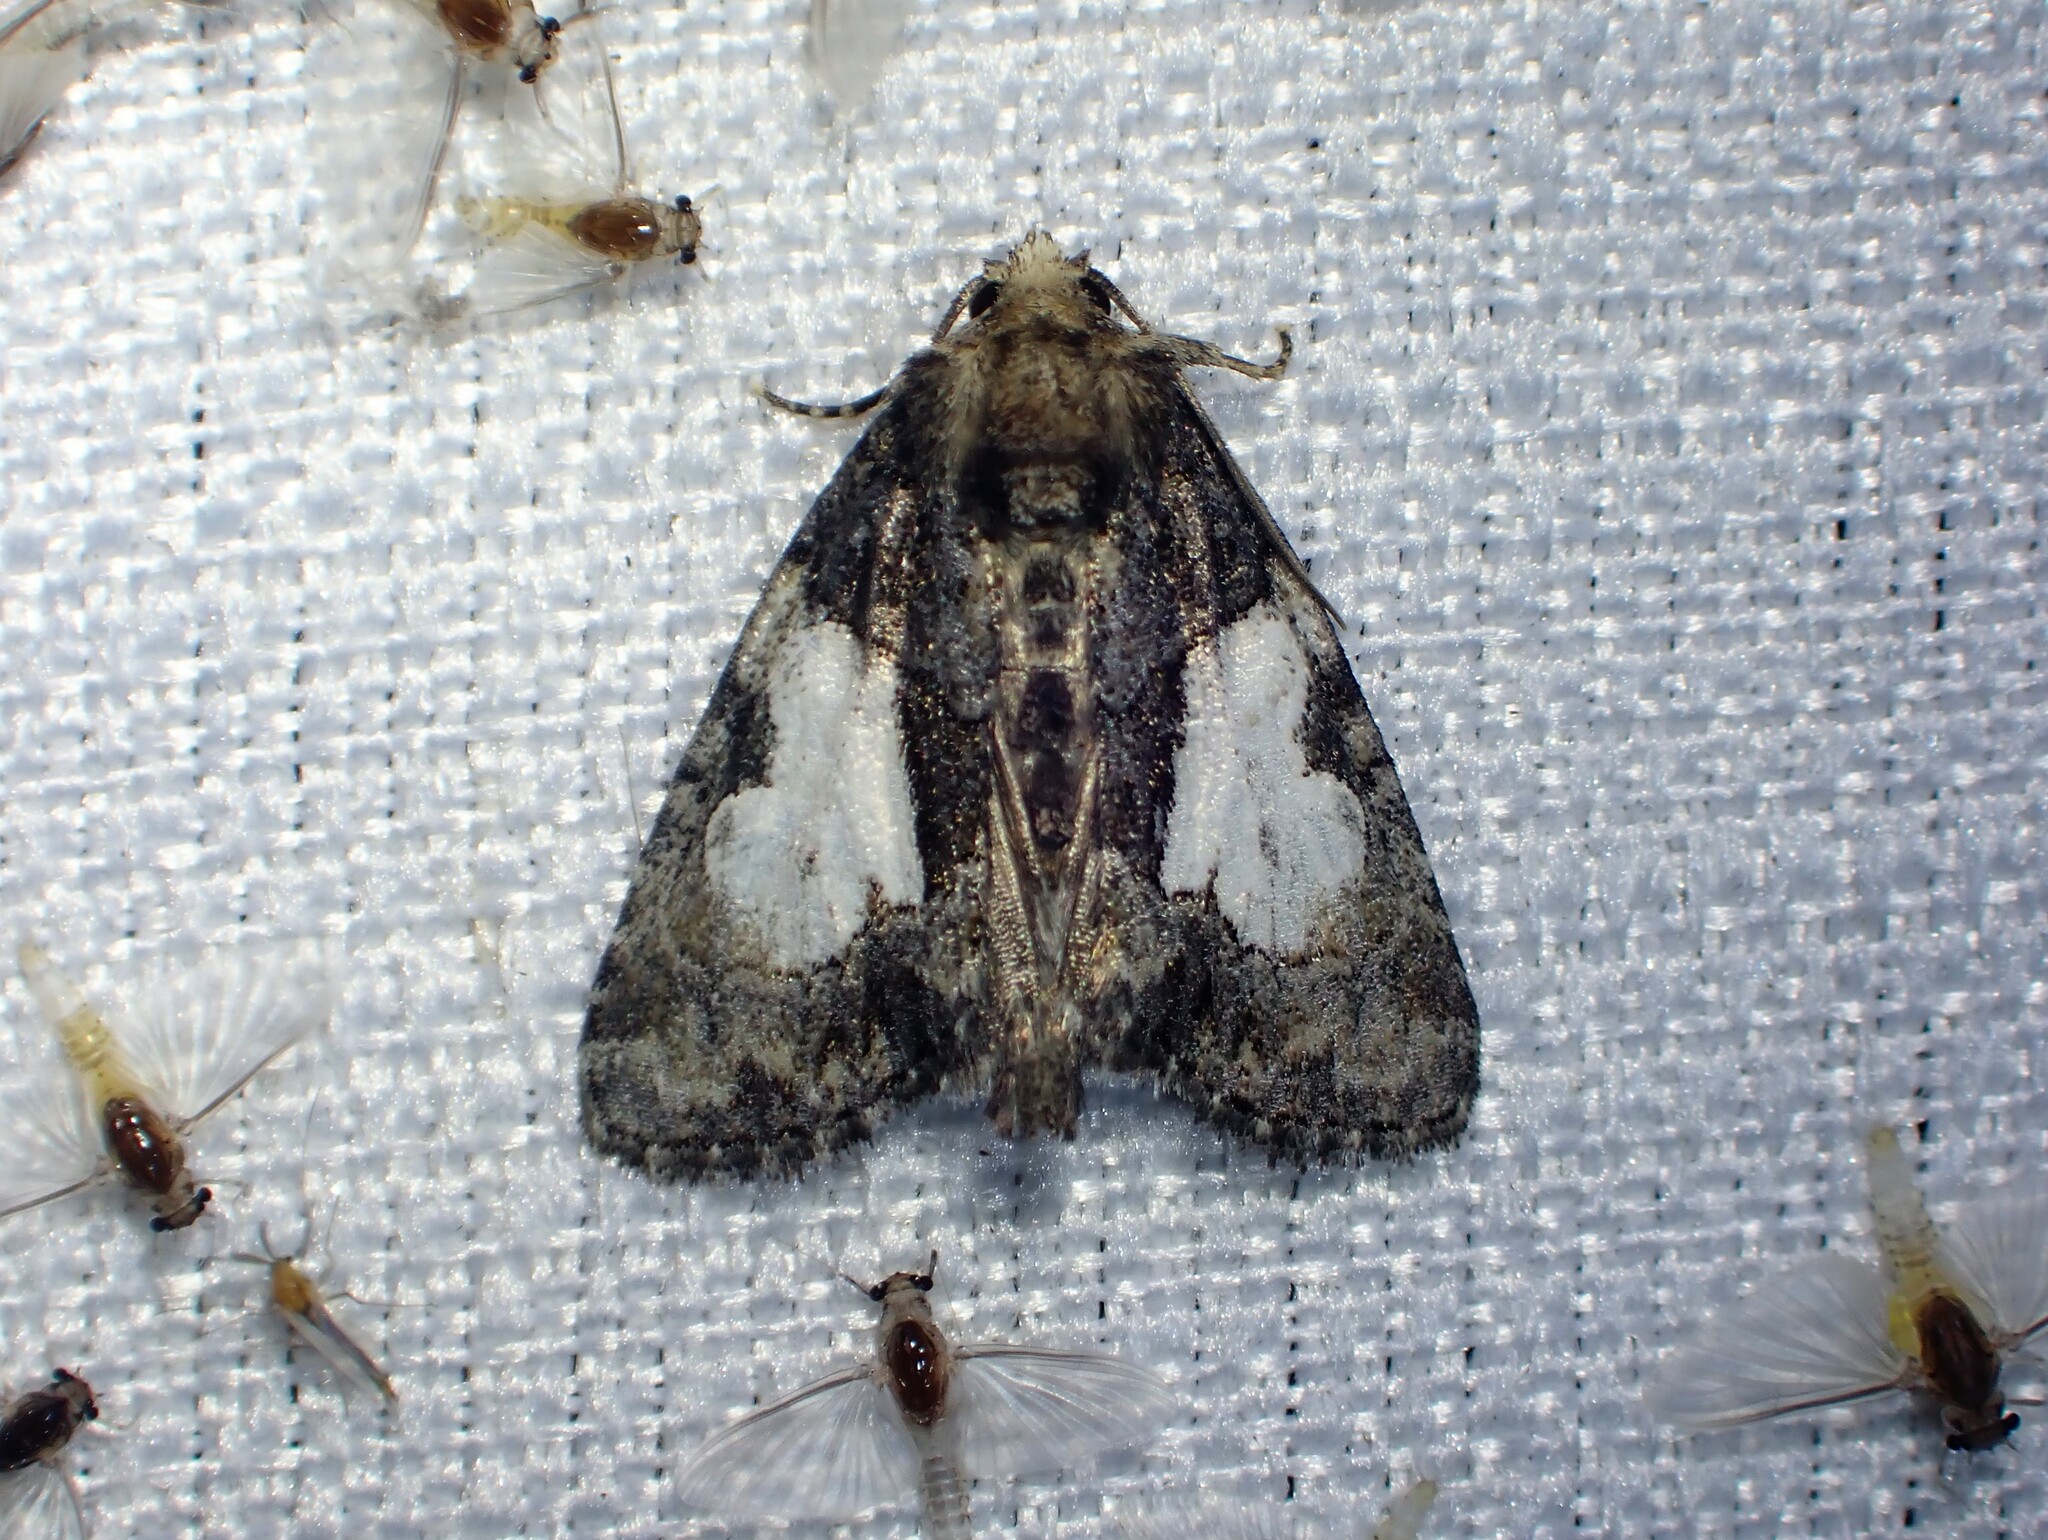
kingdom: Animalia
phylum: Arthropoda
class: Insecta
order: Lepidoptera
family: Noctuidae
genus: Chytonix
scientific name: Chytonix palliatricula
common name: Cloaked marvel
